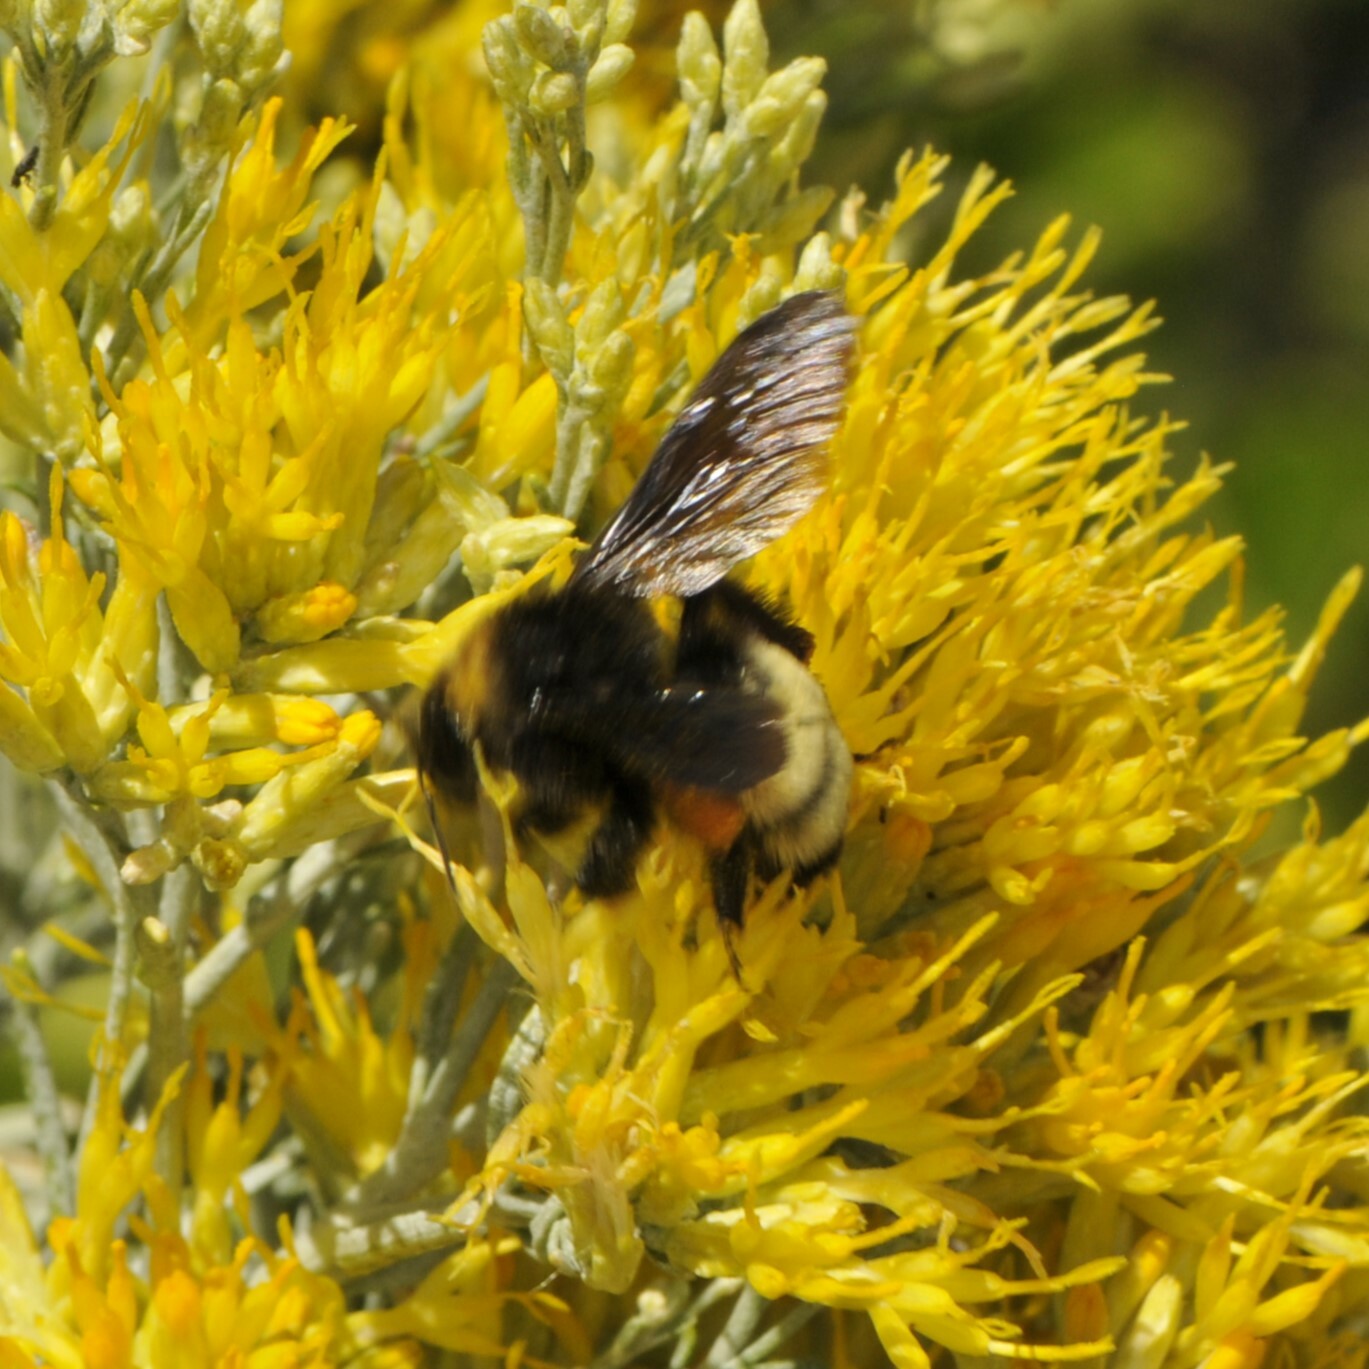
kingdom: Animalia
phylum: Arthropoda
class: Insecta
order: Hymenoptera
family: Apidae
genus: Bombus
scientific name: Bombus pensylvanicus
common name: Bumble bee
